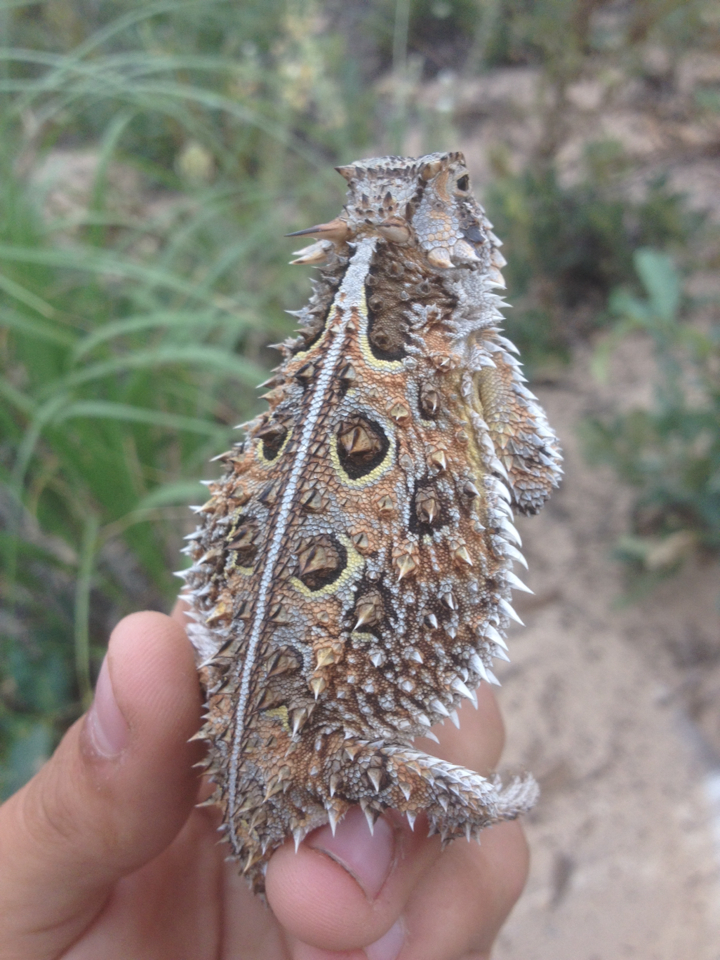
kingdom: Animalia
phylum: Chordata
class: Squamata
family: Phrynosomatidae
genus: Phrynosoma
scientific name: Phrynosoma cornutum
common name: Texas horned lizard
